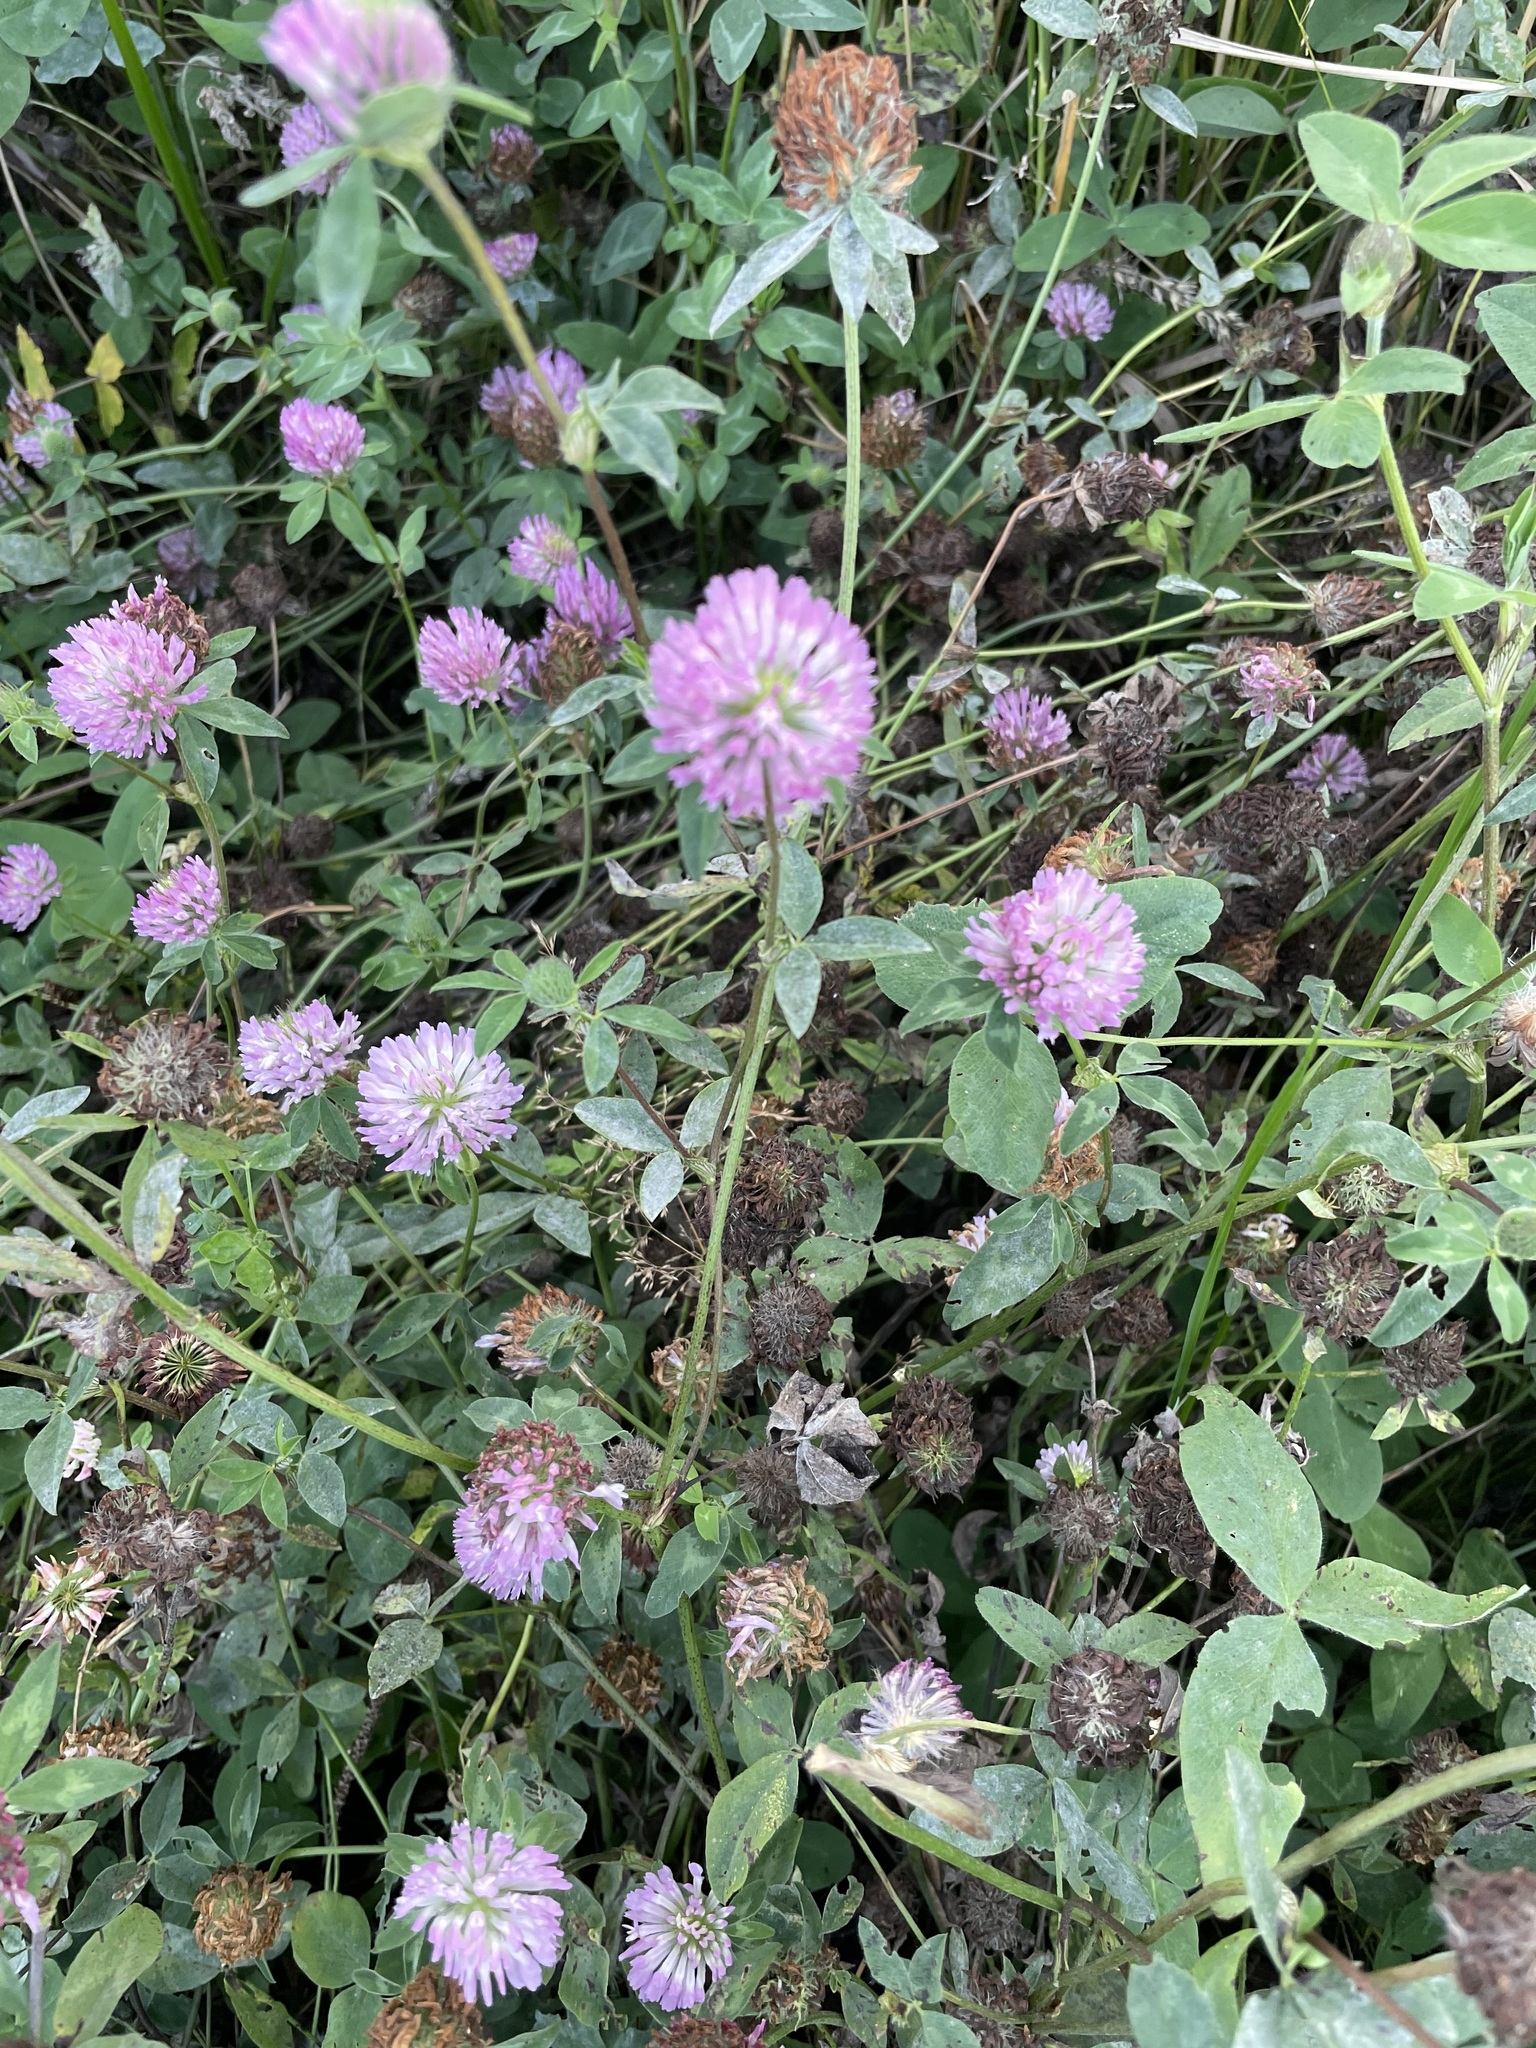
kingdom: Plantae
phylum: Tracheophyta
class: Magnoliopsida
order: Fabales
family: Fabaceae
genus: Trifolium
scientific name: Trifolium pratense
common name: Red clover
